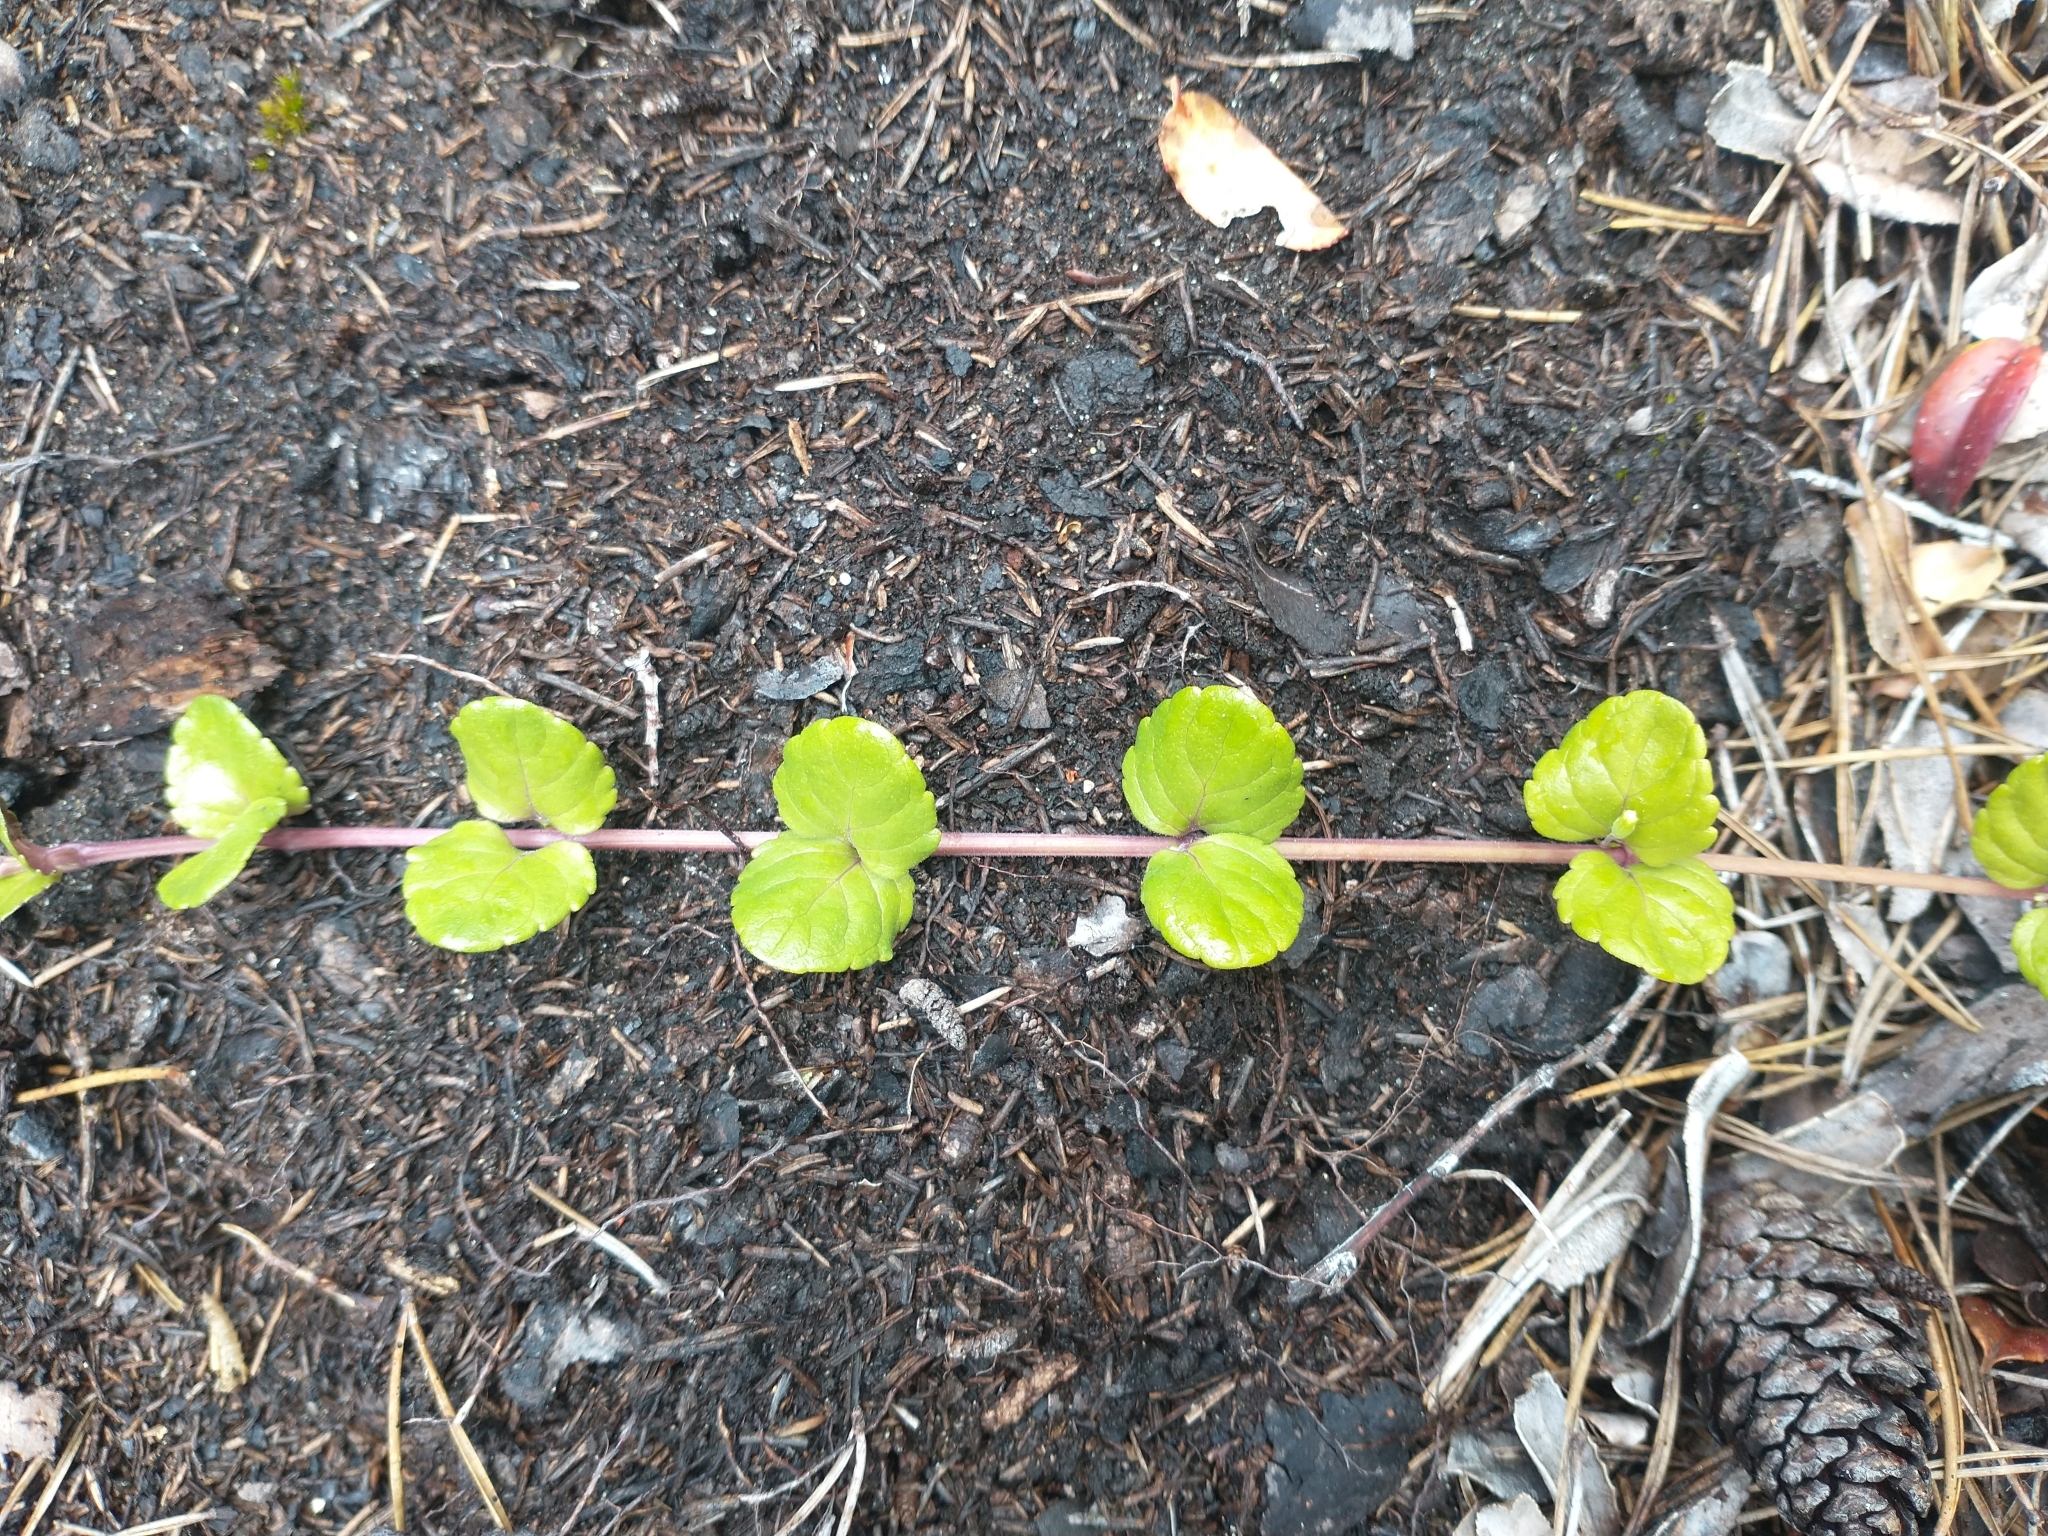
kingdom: Plantae
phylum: Tracheophyta
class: Magnoliopsida
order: Lamiales
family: Lamiaceae
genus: Micromeria
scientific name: Micromeria douglasii
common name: Yerba buena
